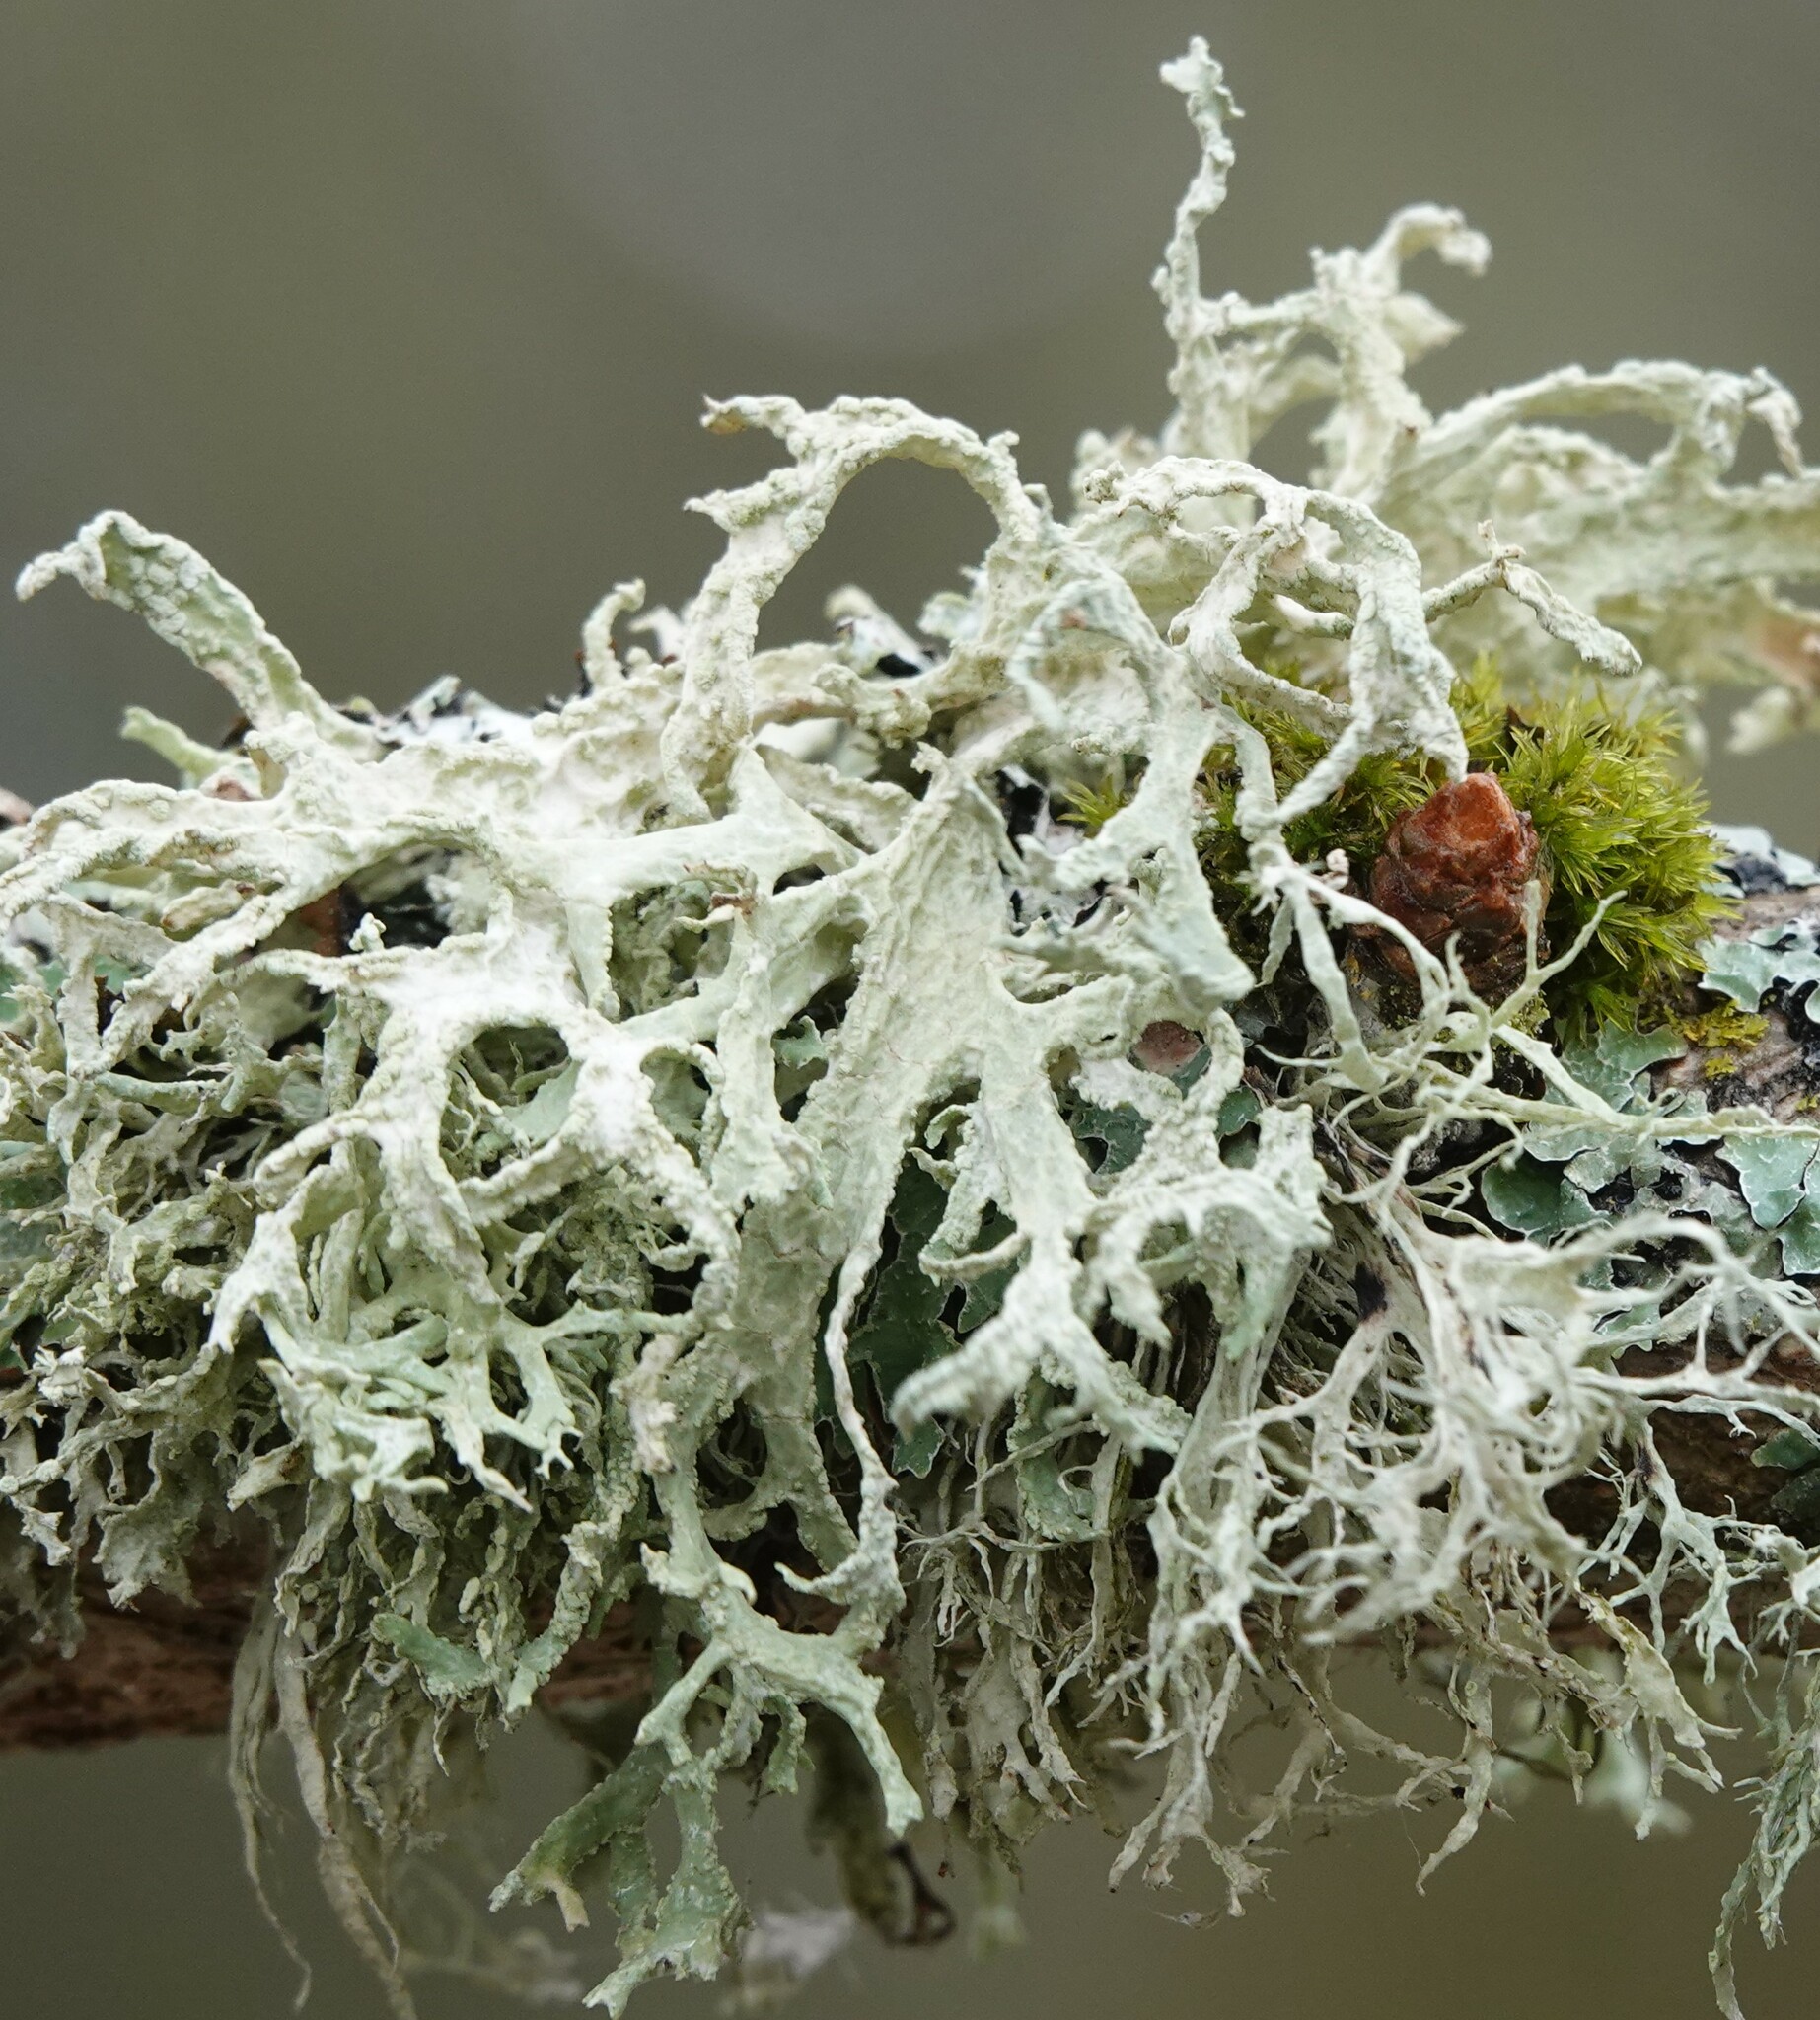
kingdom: Fungi
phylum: Ascomycota
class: Lecanoromycetes
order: Lecanorales
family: Parmeliaceae
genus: Evernia
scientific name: Evernia prunastri
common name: Oak moss
